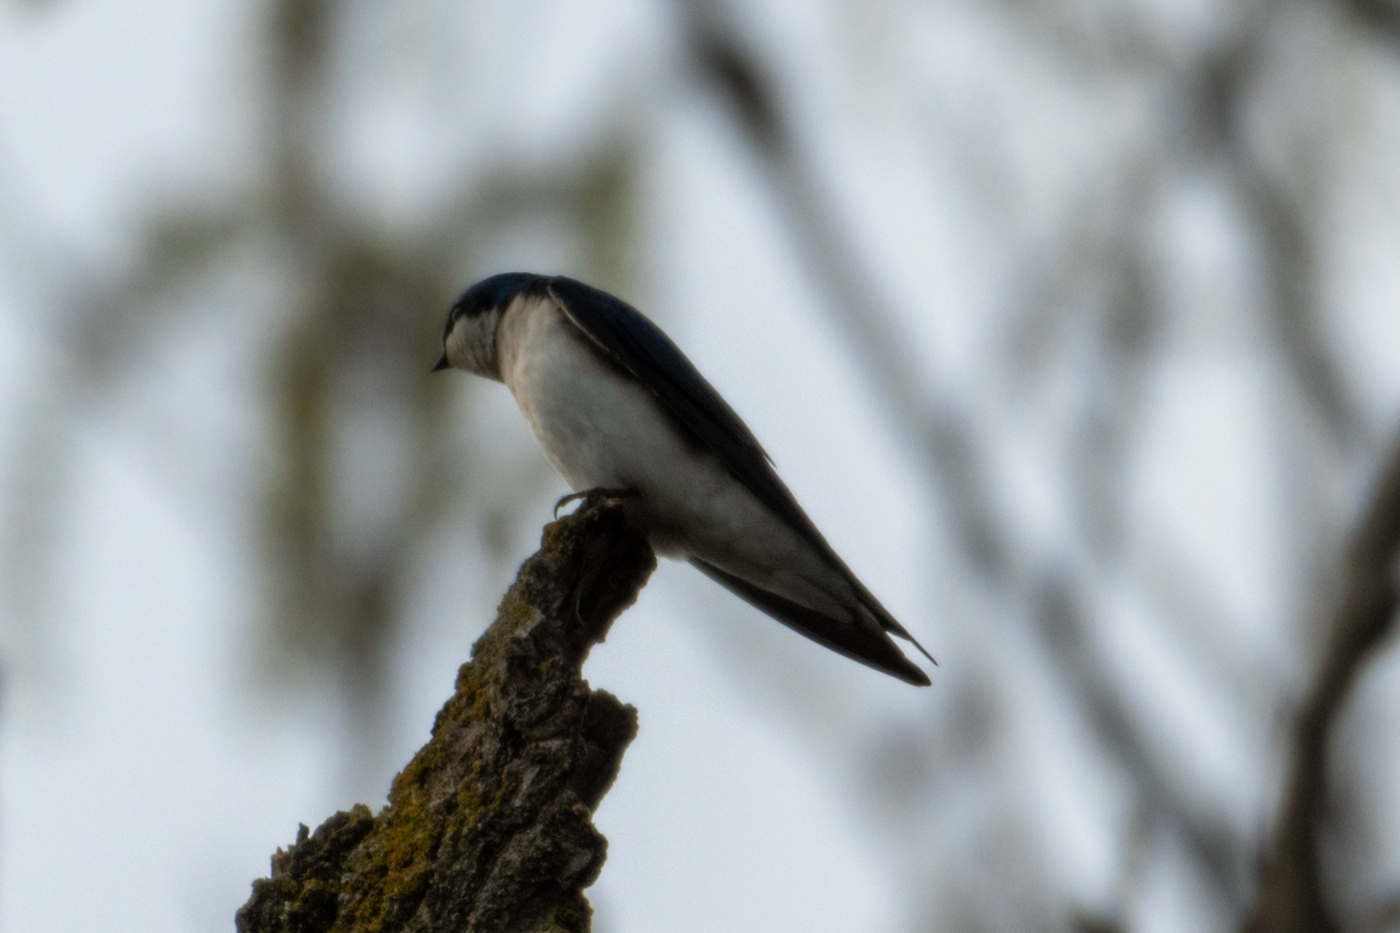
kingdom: Animalia
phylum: Chordata
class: Aves
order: Passeriformes
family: Hirundinidae
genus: Tachycineta
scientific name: Tachycineta bicolor
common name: Tree swallow
